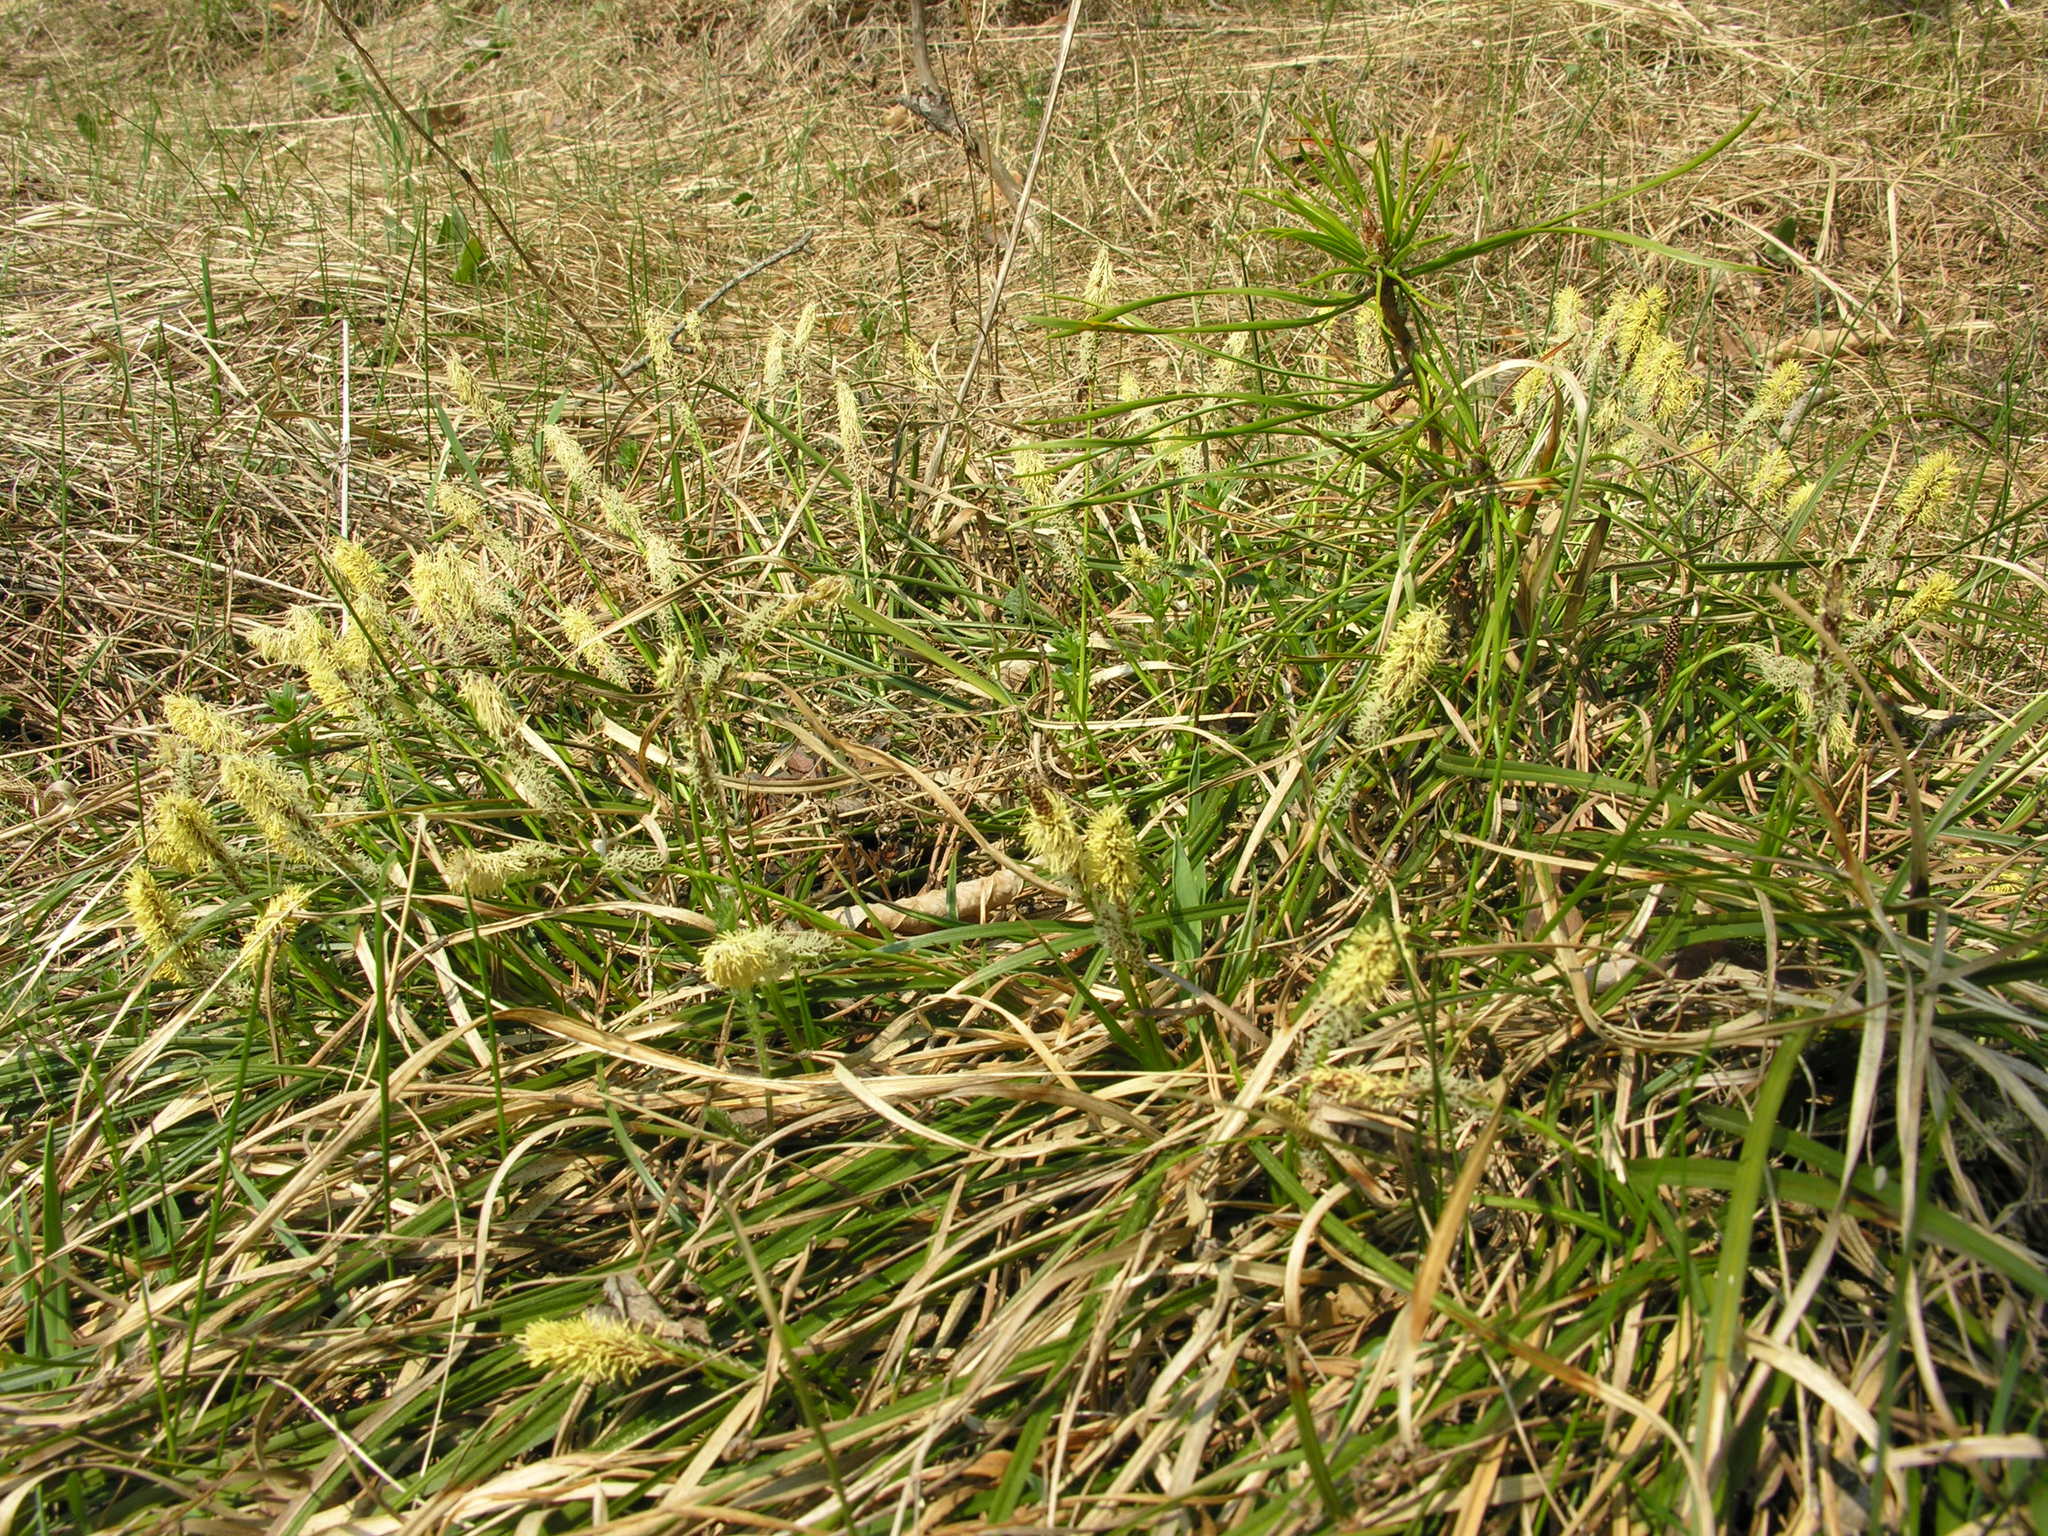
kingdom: Plantae
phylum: Tracheophyta
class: Liliopsida
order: Poales
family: Cyperaceae
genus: Carex
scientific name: Carex ericetorum
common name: Rare spring-sedge
